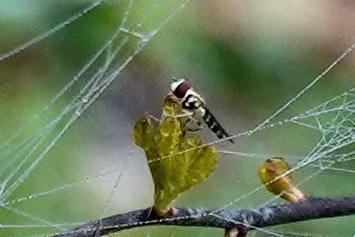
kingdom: Animalia
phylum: Arthropoda
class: Insecta
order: Diptera
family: Syrphidae
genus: Toxomerus
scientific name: Toxomerus geminatus
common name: Eastern calligrapher
